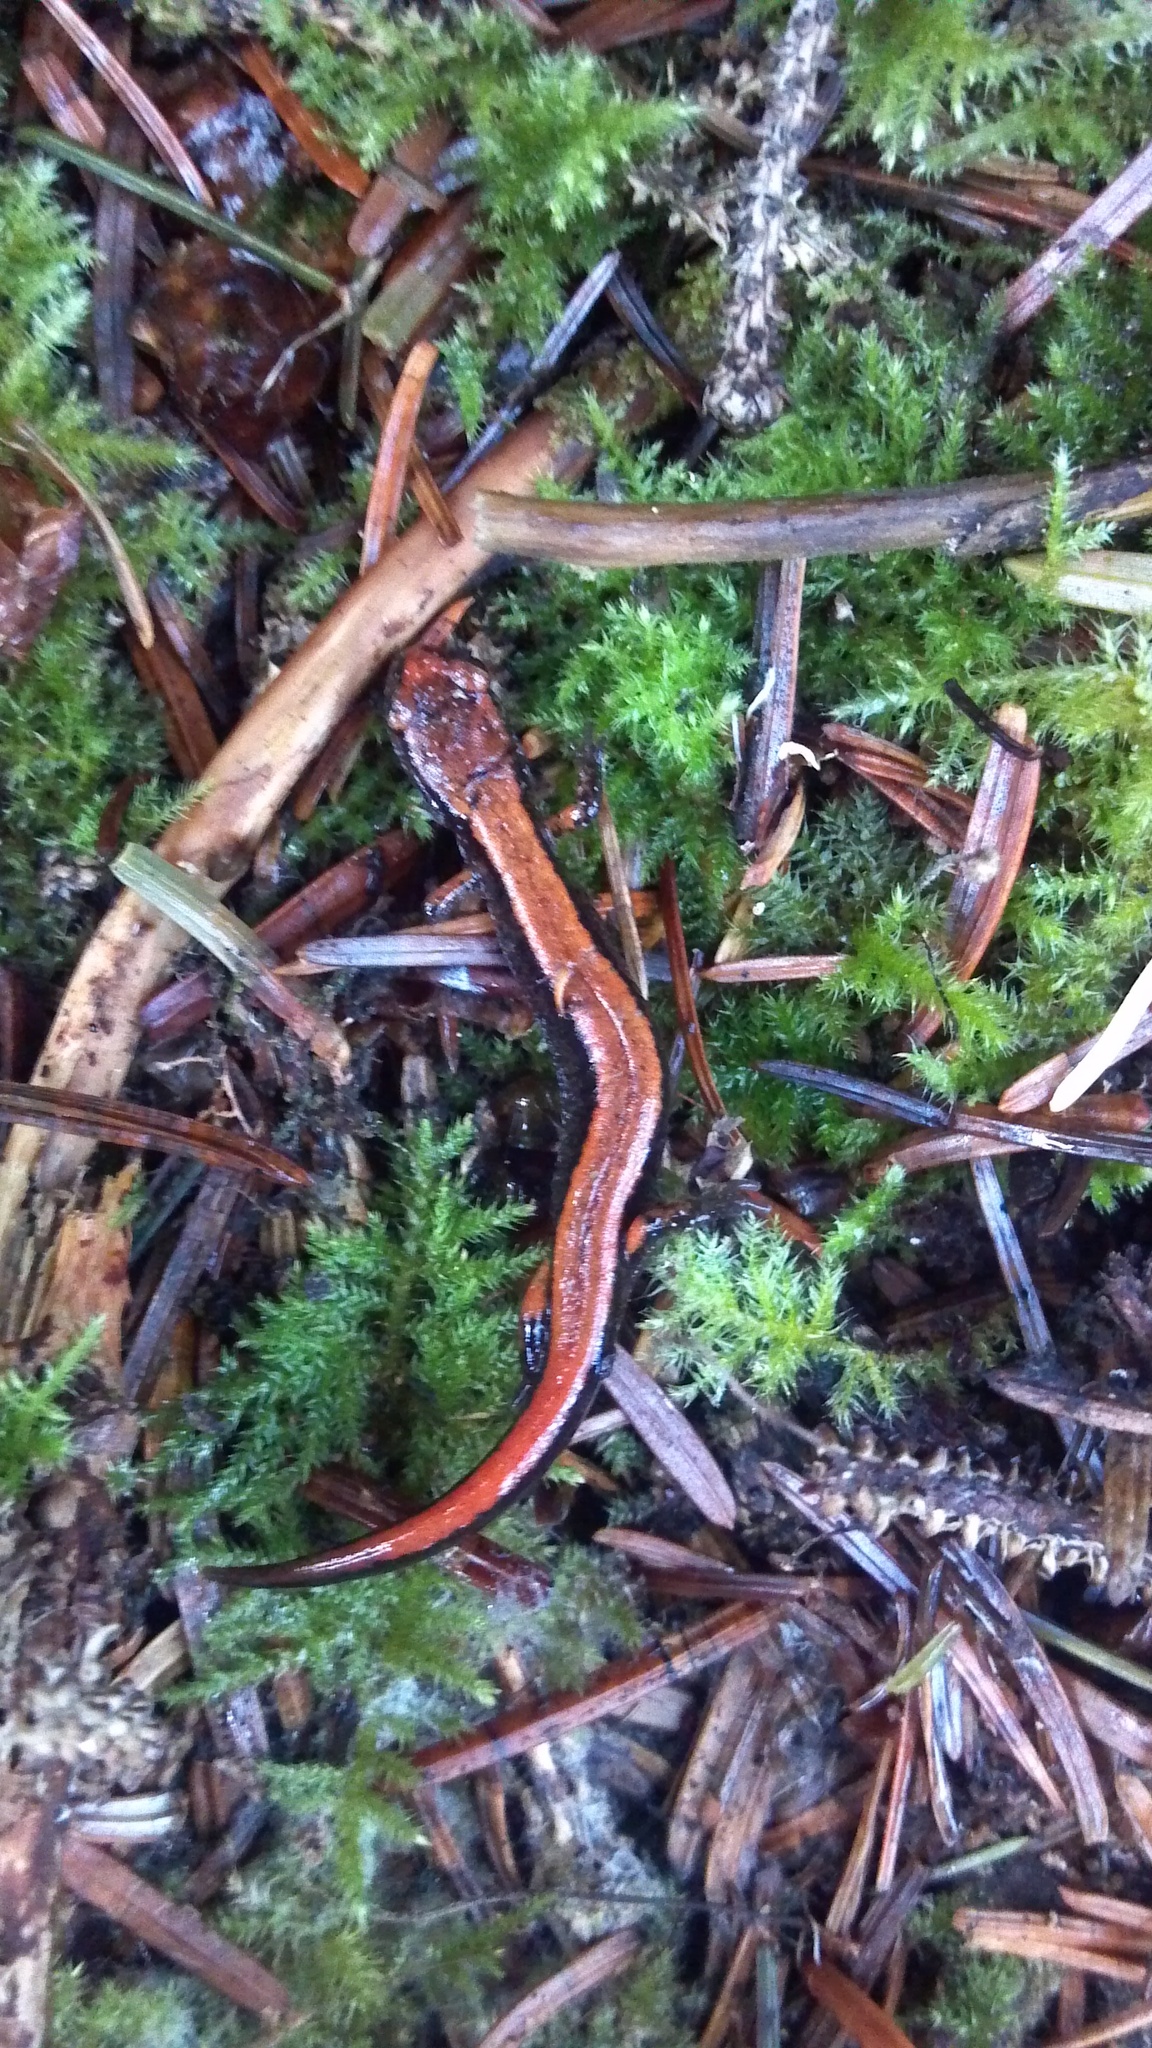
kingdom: Animalia
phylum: Chordata
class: Amphibia
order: Caudata
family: Plethodontidae
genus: Plethodon
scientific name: Plethodon vehiculum
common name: Western red-backed salamander
